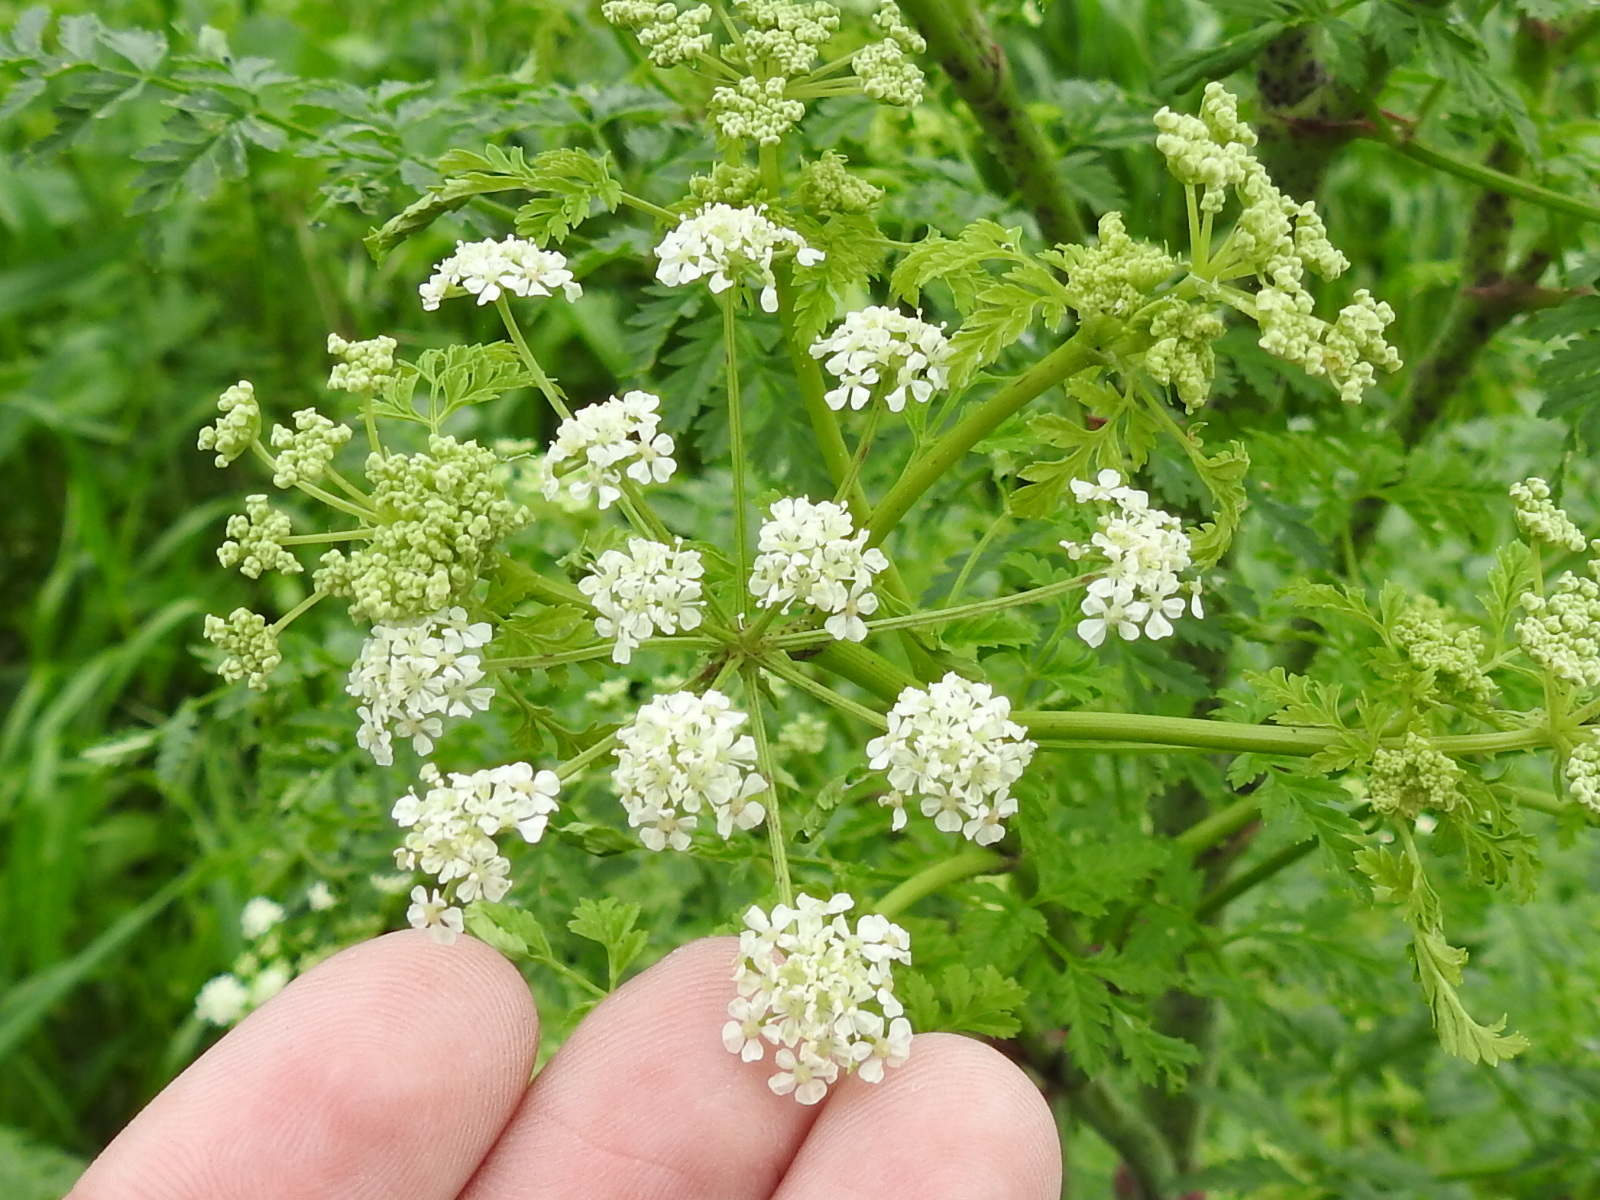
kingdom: Plantae
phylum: Tracheophyta
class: Magnoliopsida
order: Apiales
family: Apiaceae
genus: Conium
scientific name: Conium maculatum
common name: Hemlock
